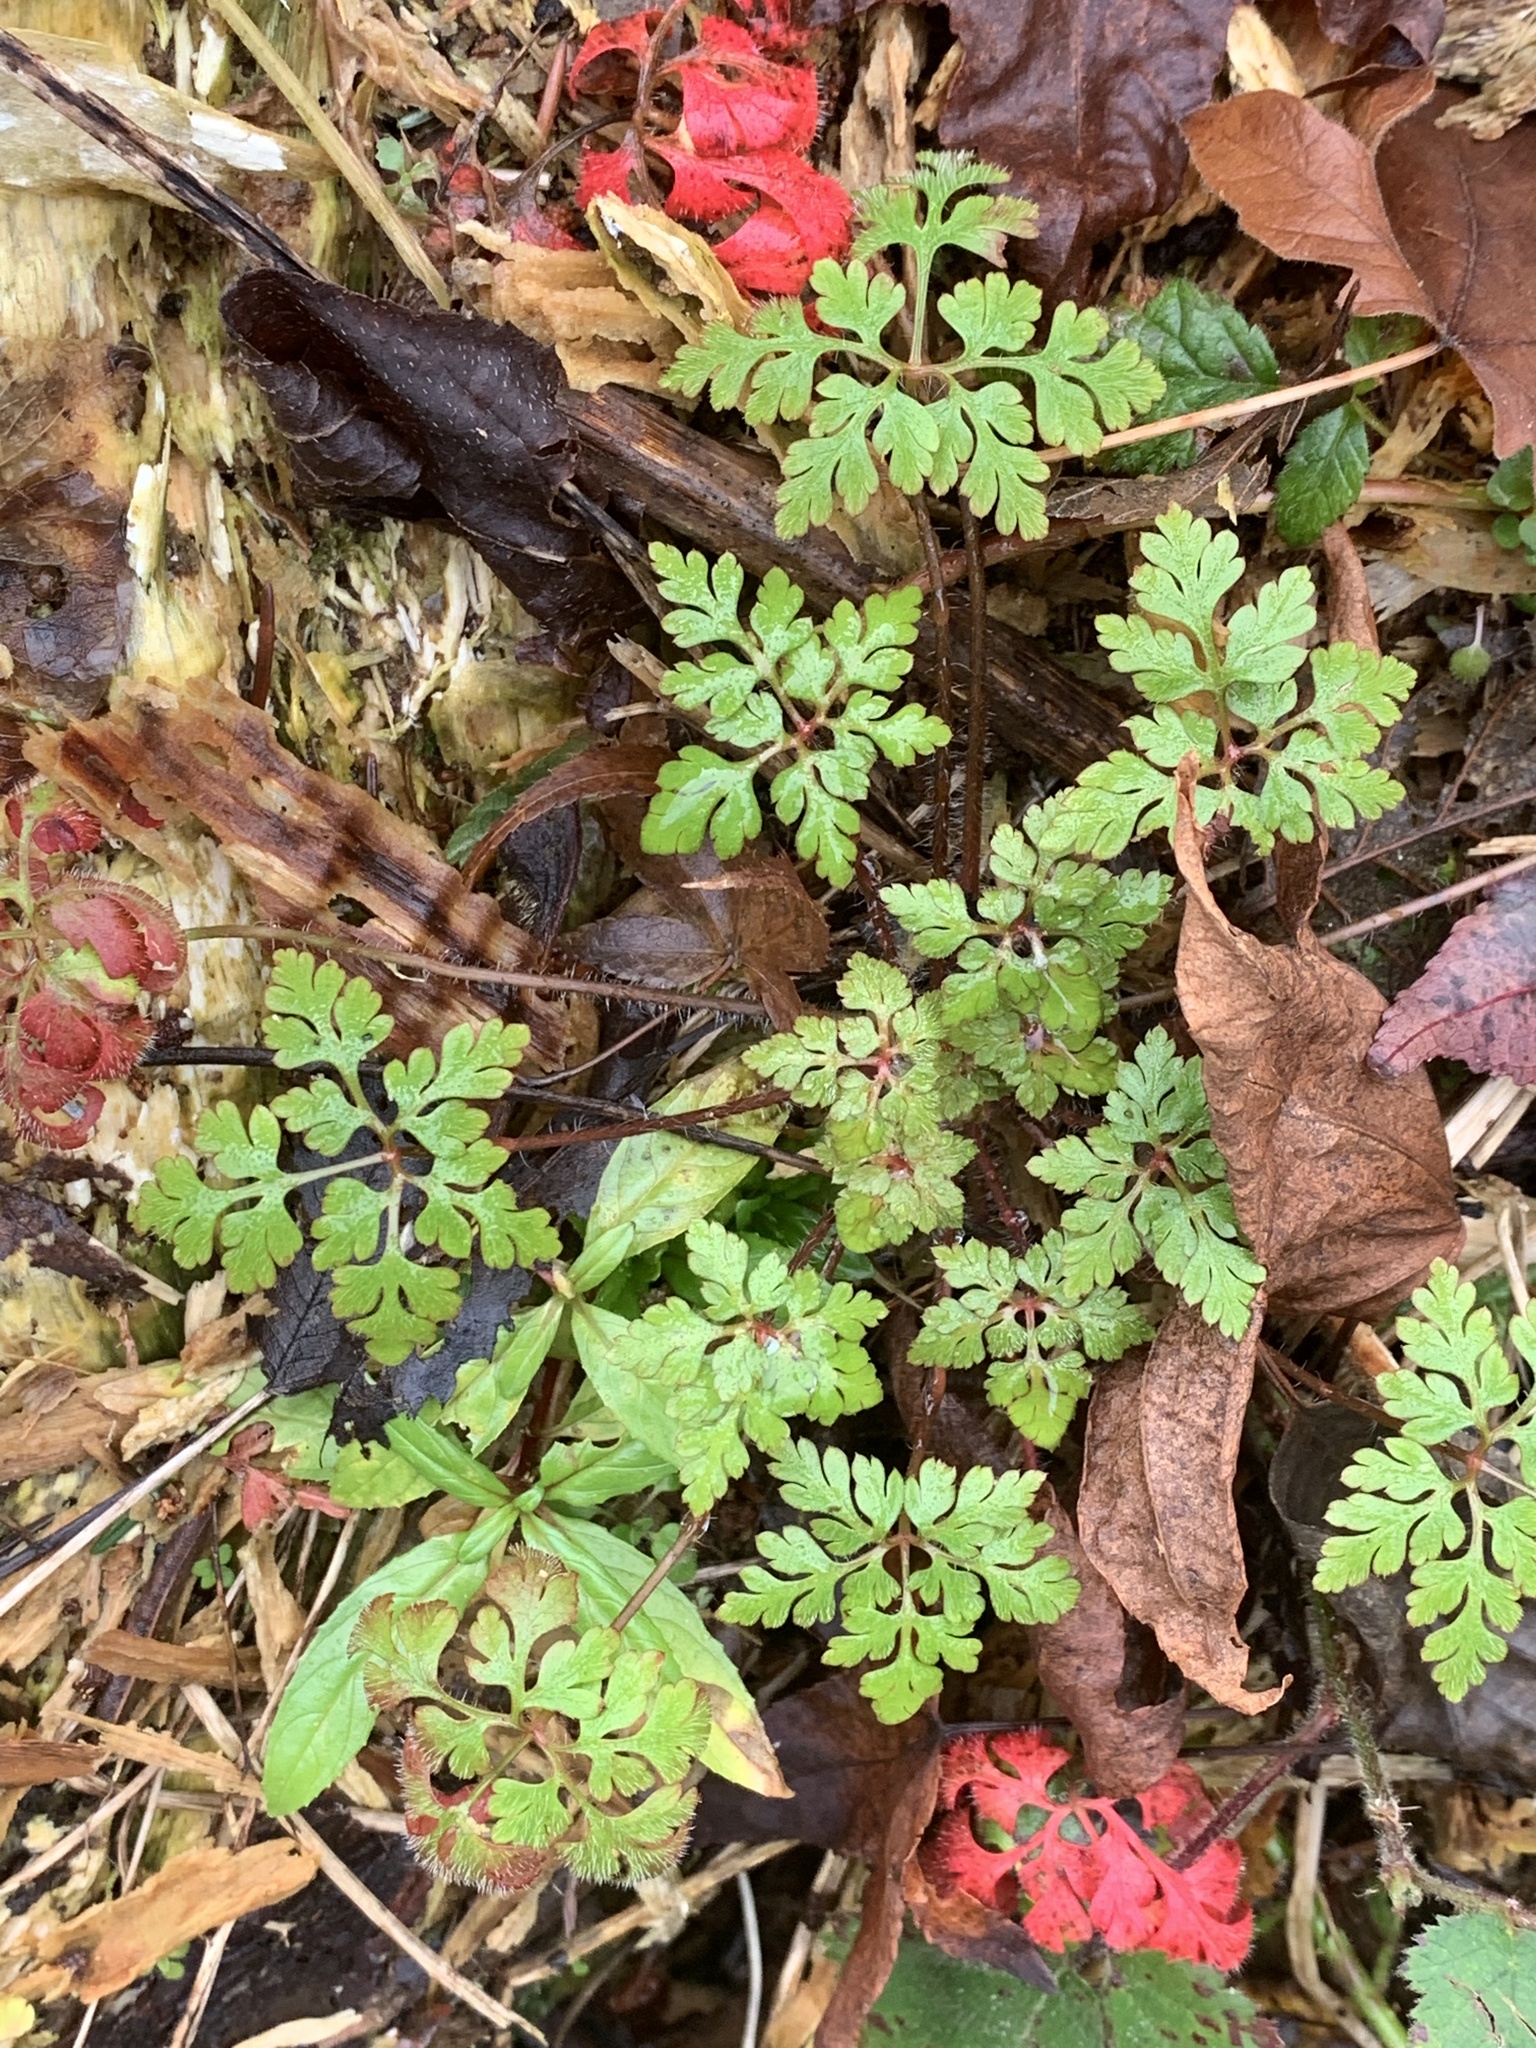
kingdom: Plantae
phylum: Tracheophyta
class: Magnoliopsida
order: Geraniales
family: Geraniaceae
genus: Geranium
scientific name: Geranium robertianum
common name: Herb-robert
